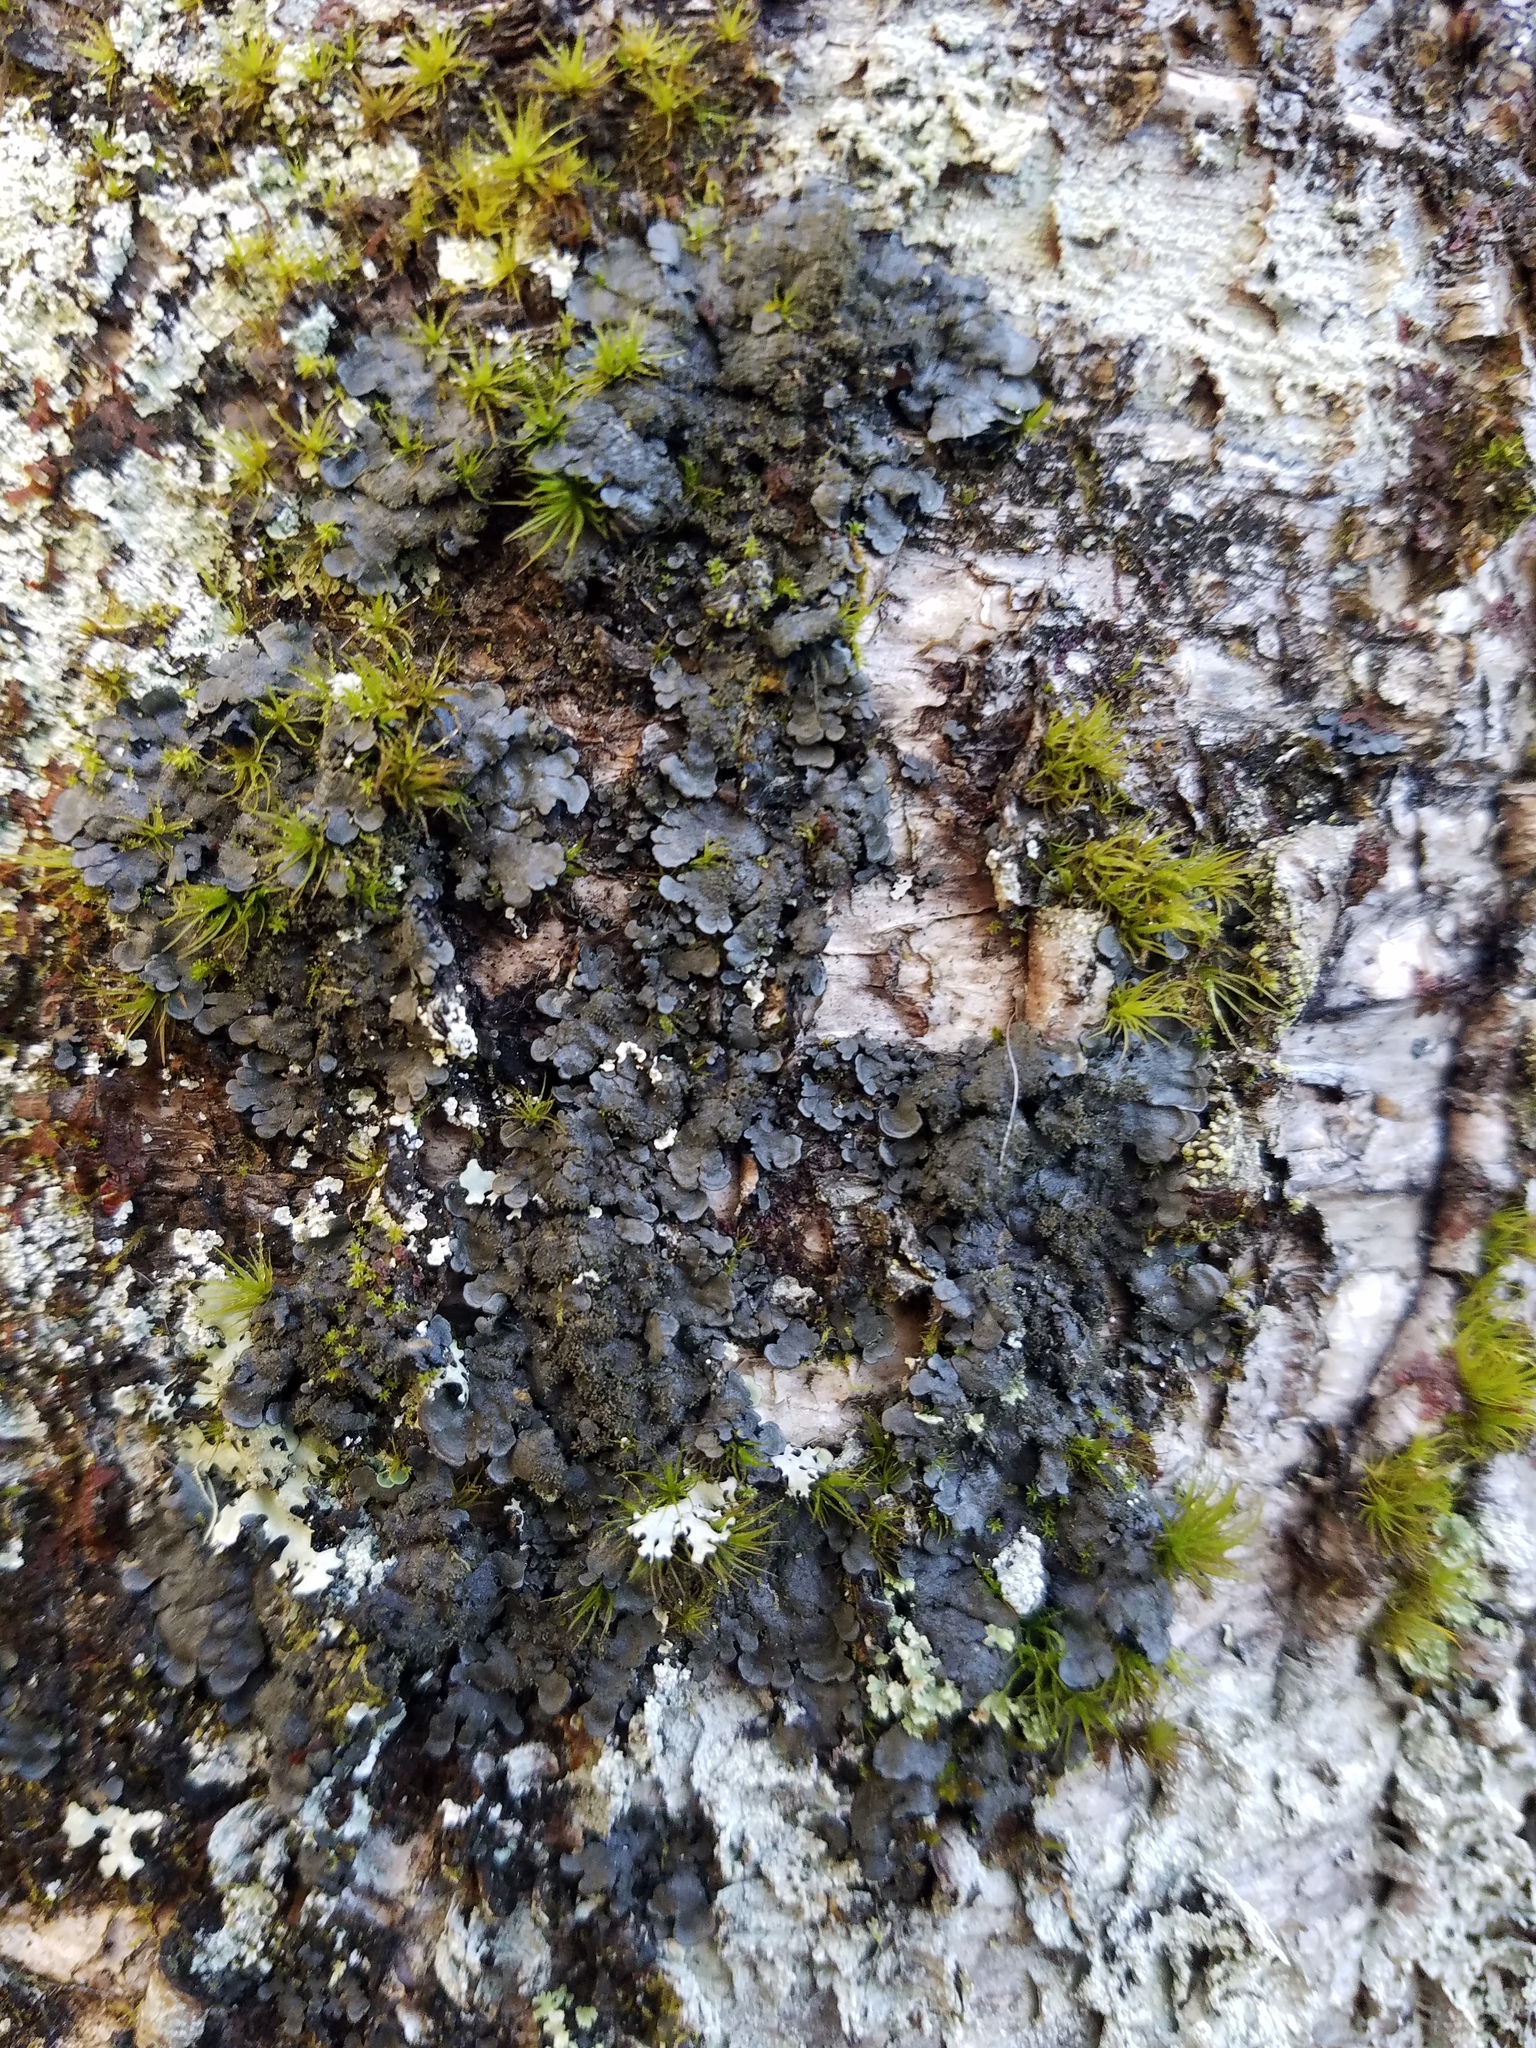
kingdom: Fungi
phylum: Ascomycota
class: Lecanoromycetes
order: Peltigerales
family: Coccocarpiaceae
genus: Coccocarpia
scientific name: Coccocarpia palmicola
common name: Salted shell lichen
